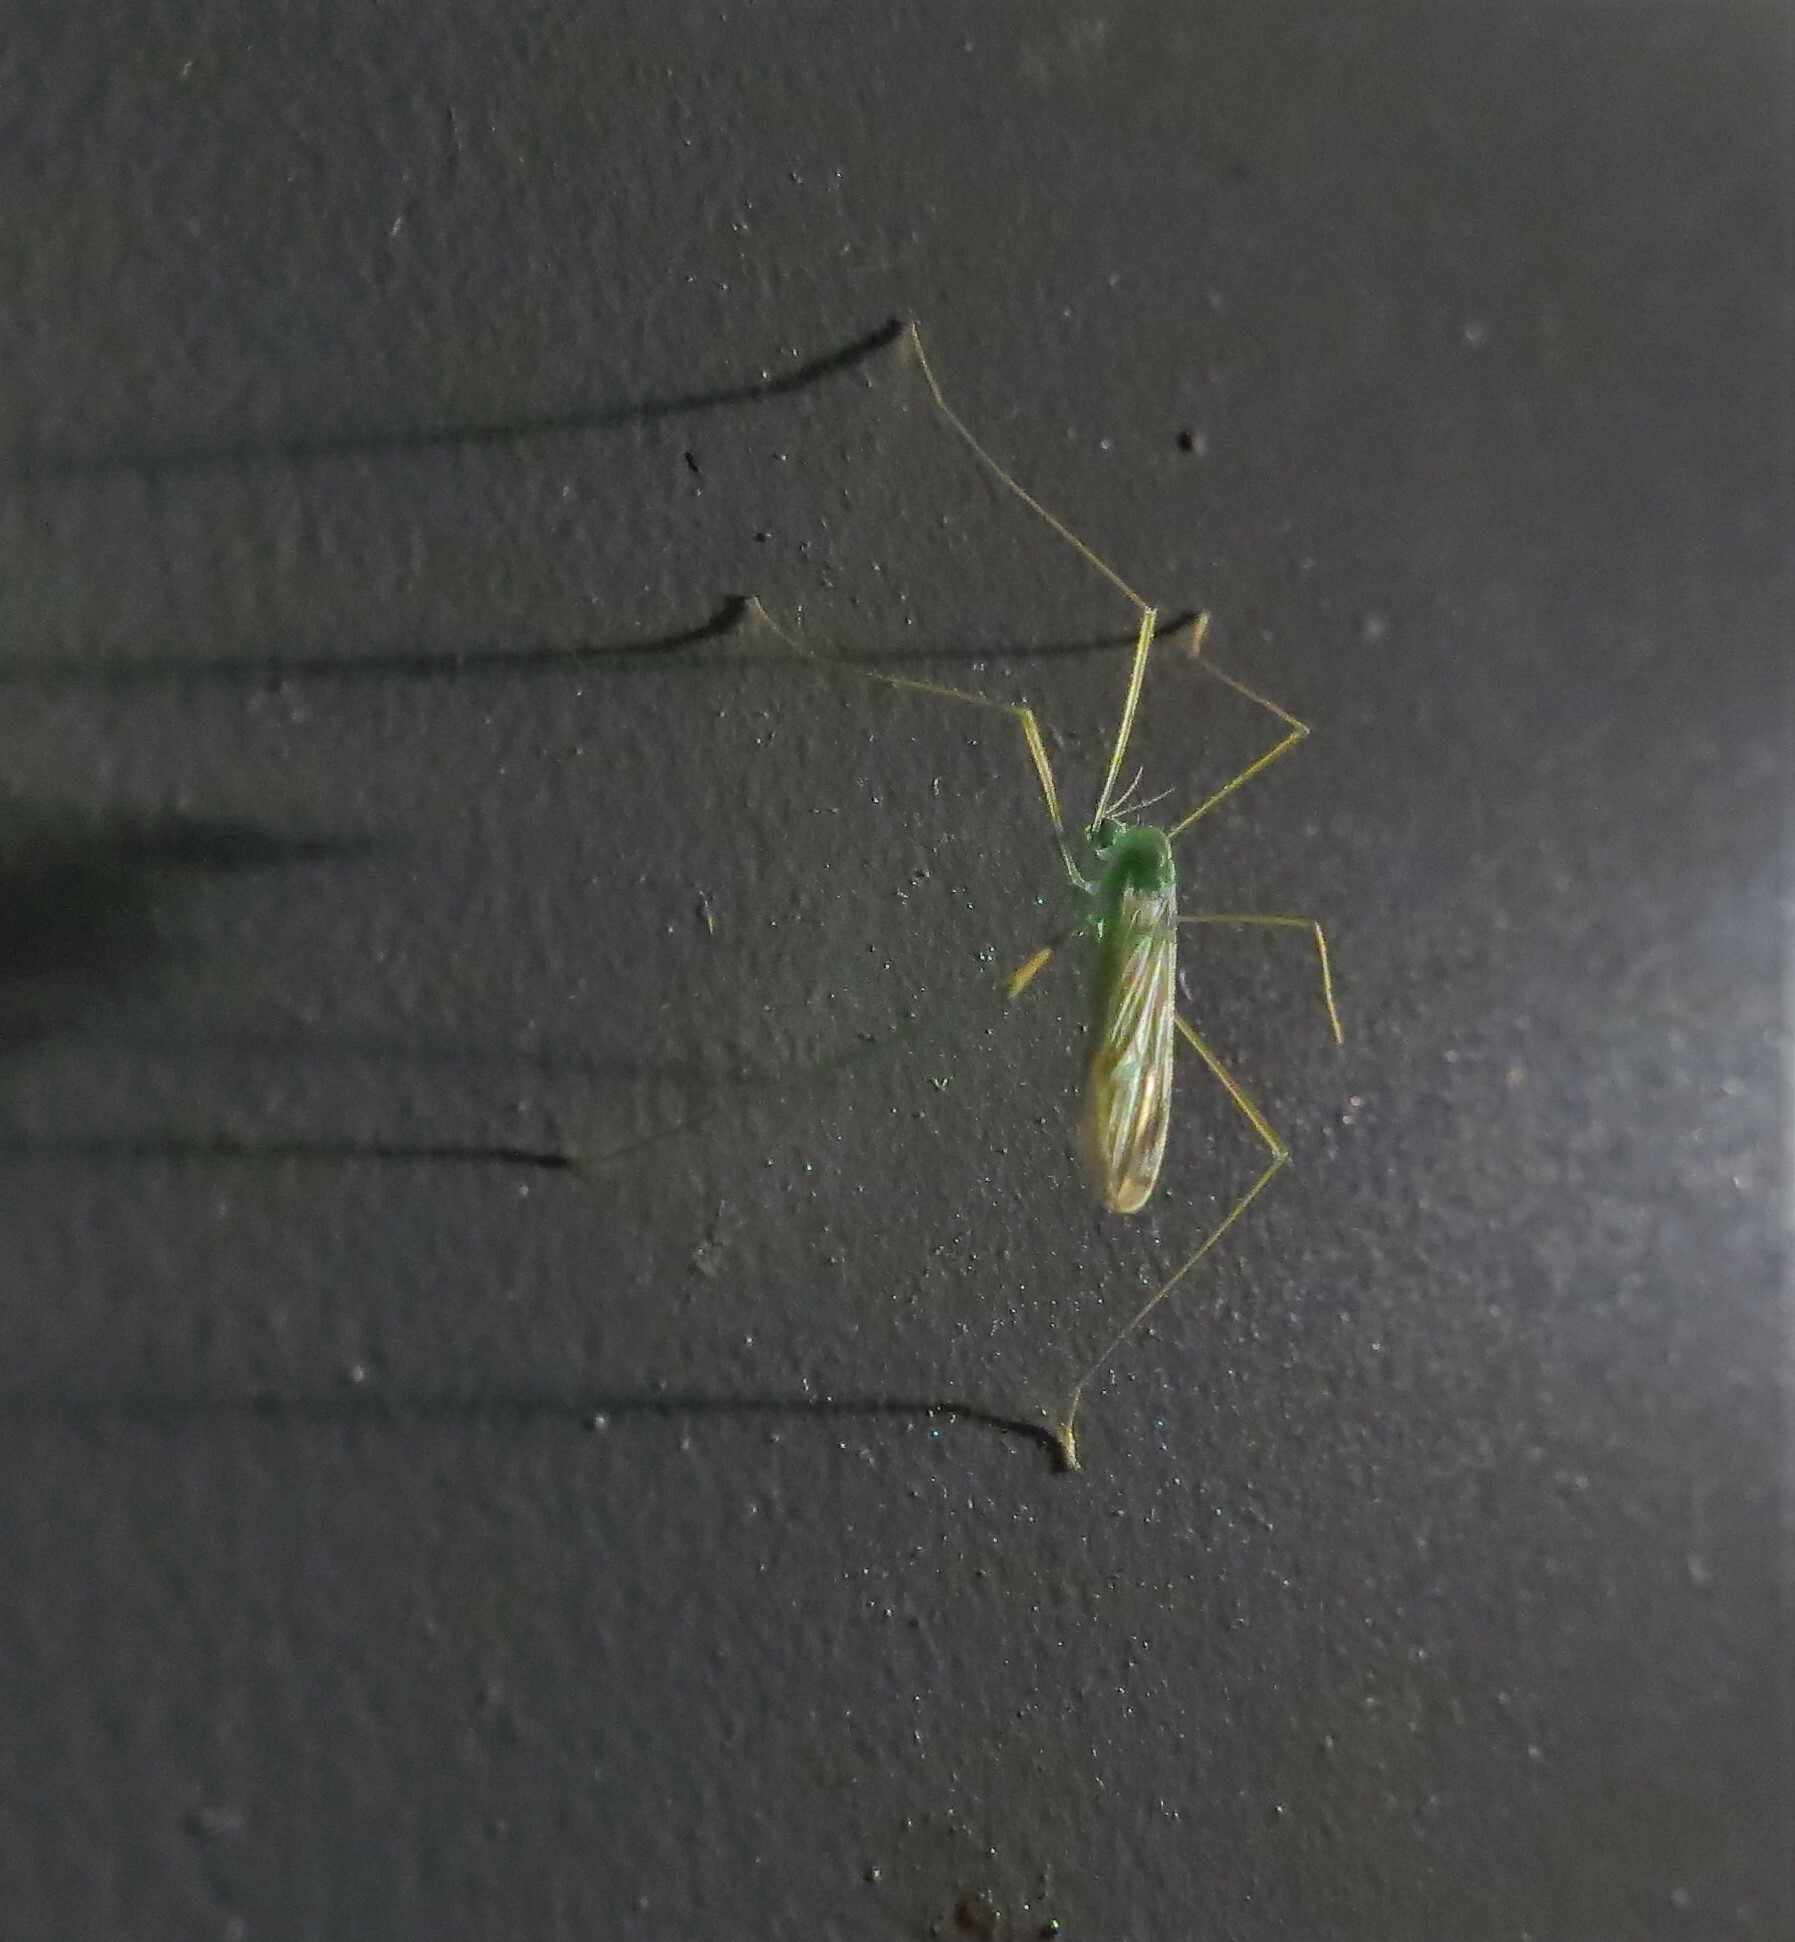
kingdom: Animalia
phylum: Arthropoda
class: Insecta
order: Diptera
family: Limoniidae
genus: Erioptera
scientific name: Erioptera
